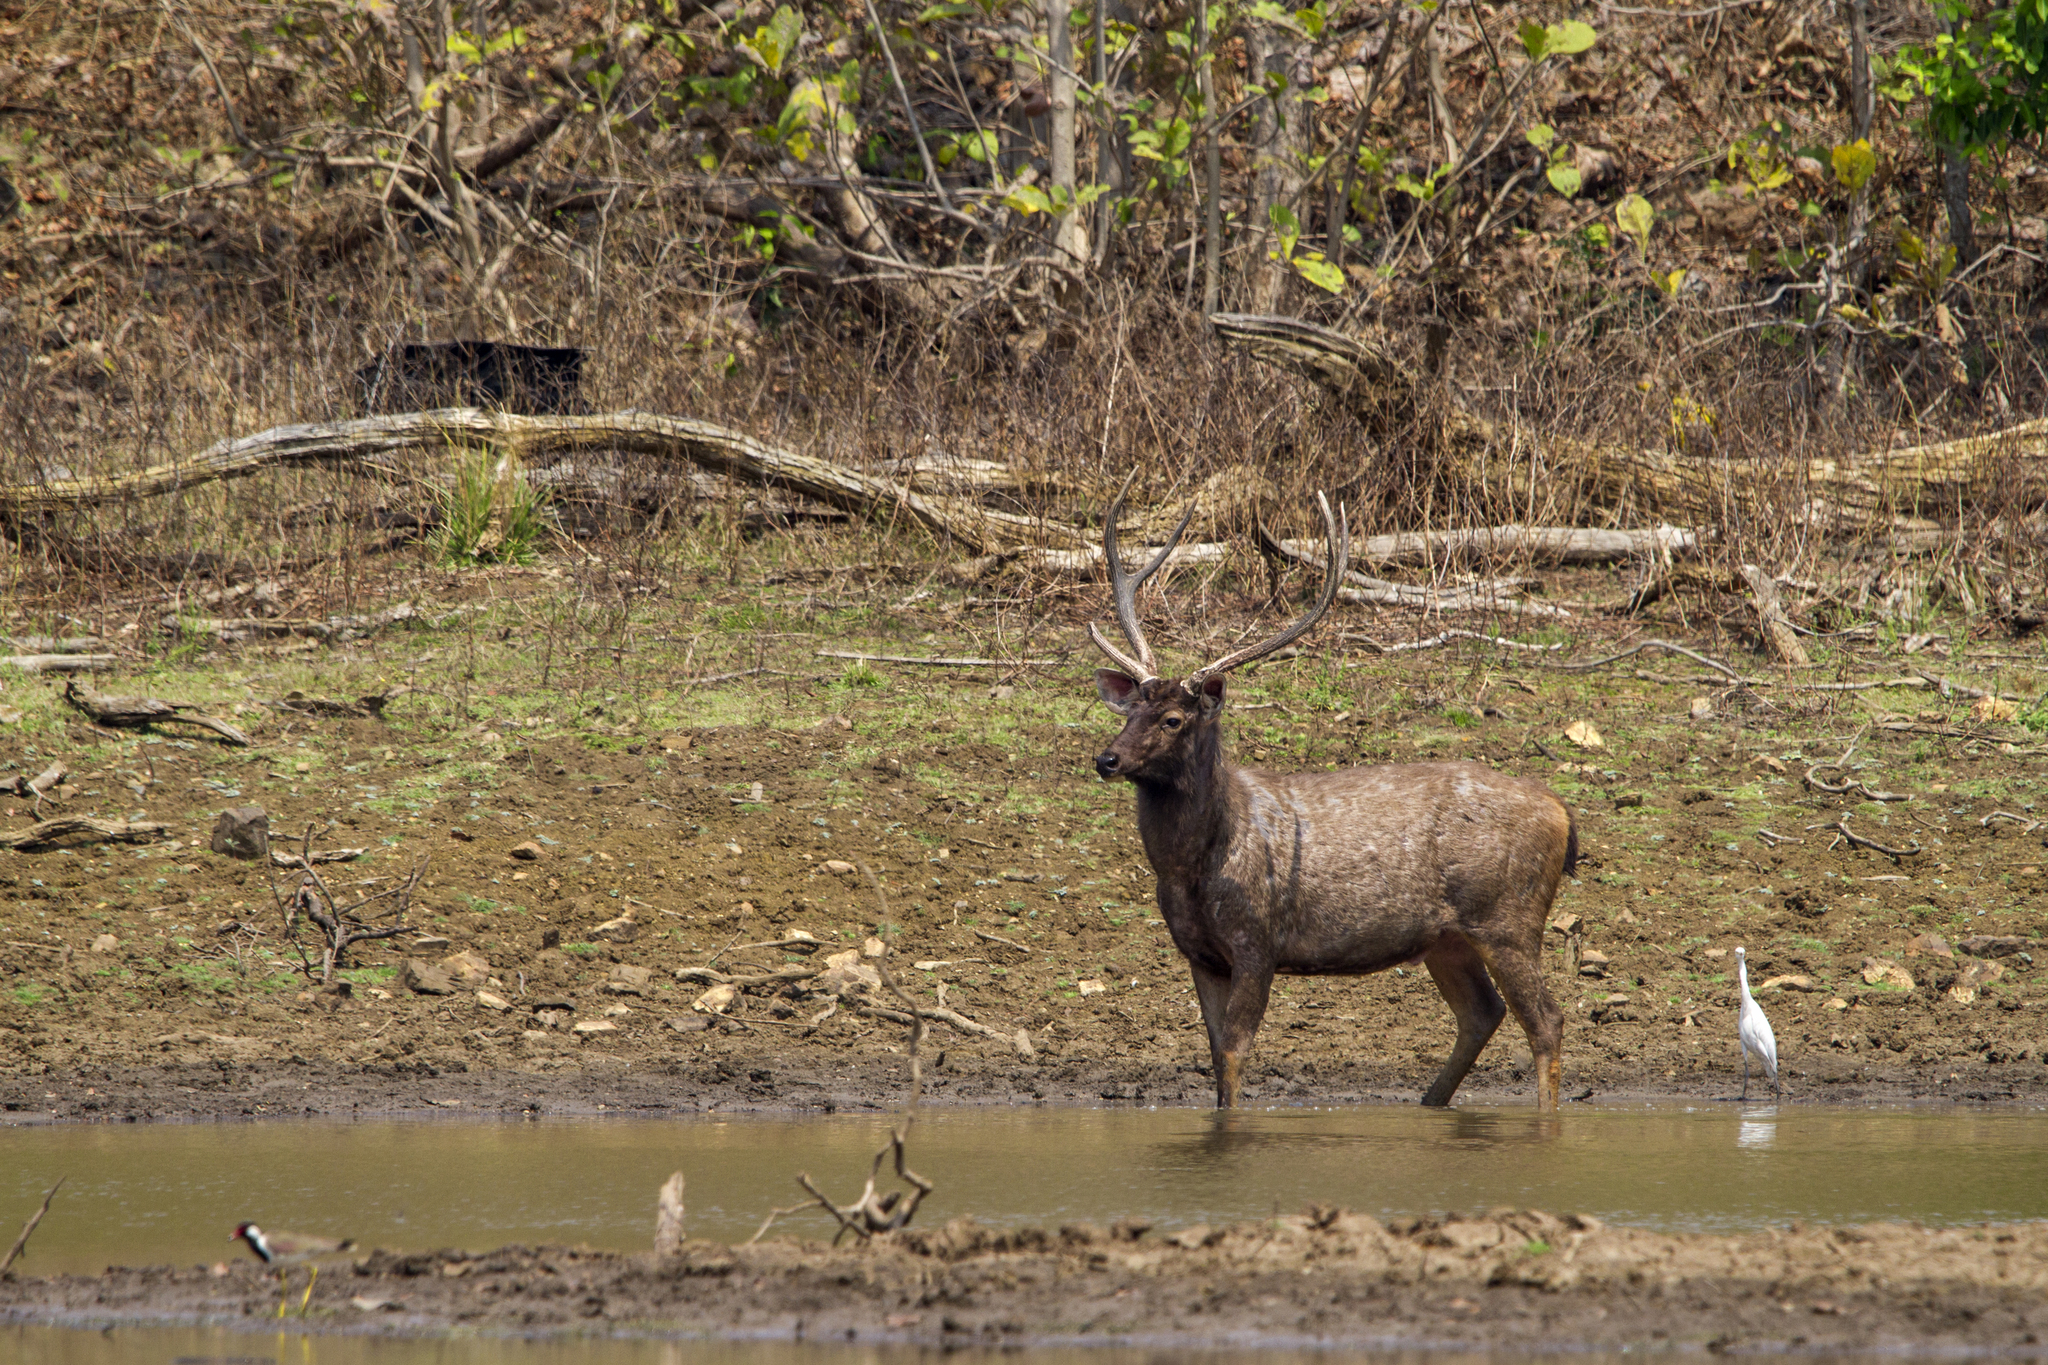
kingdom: Animalia
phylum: Chordata
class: Mammalia
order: Artiodactyla
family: Cervidae
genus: Rusa
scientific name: Rusa unicolor
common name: Sambar
